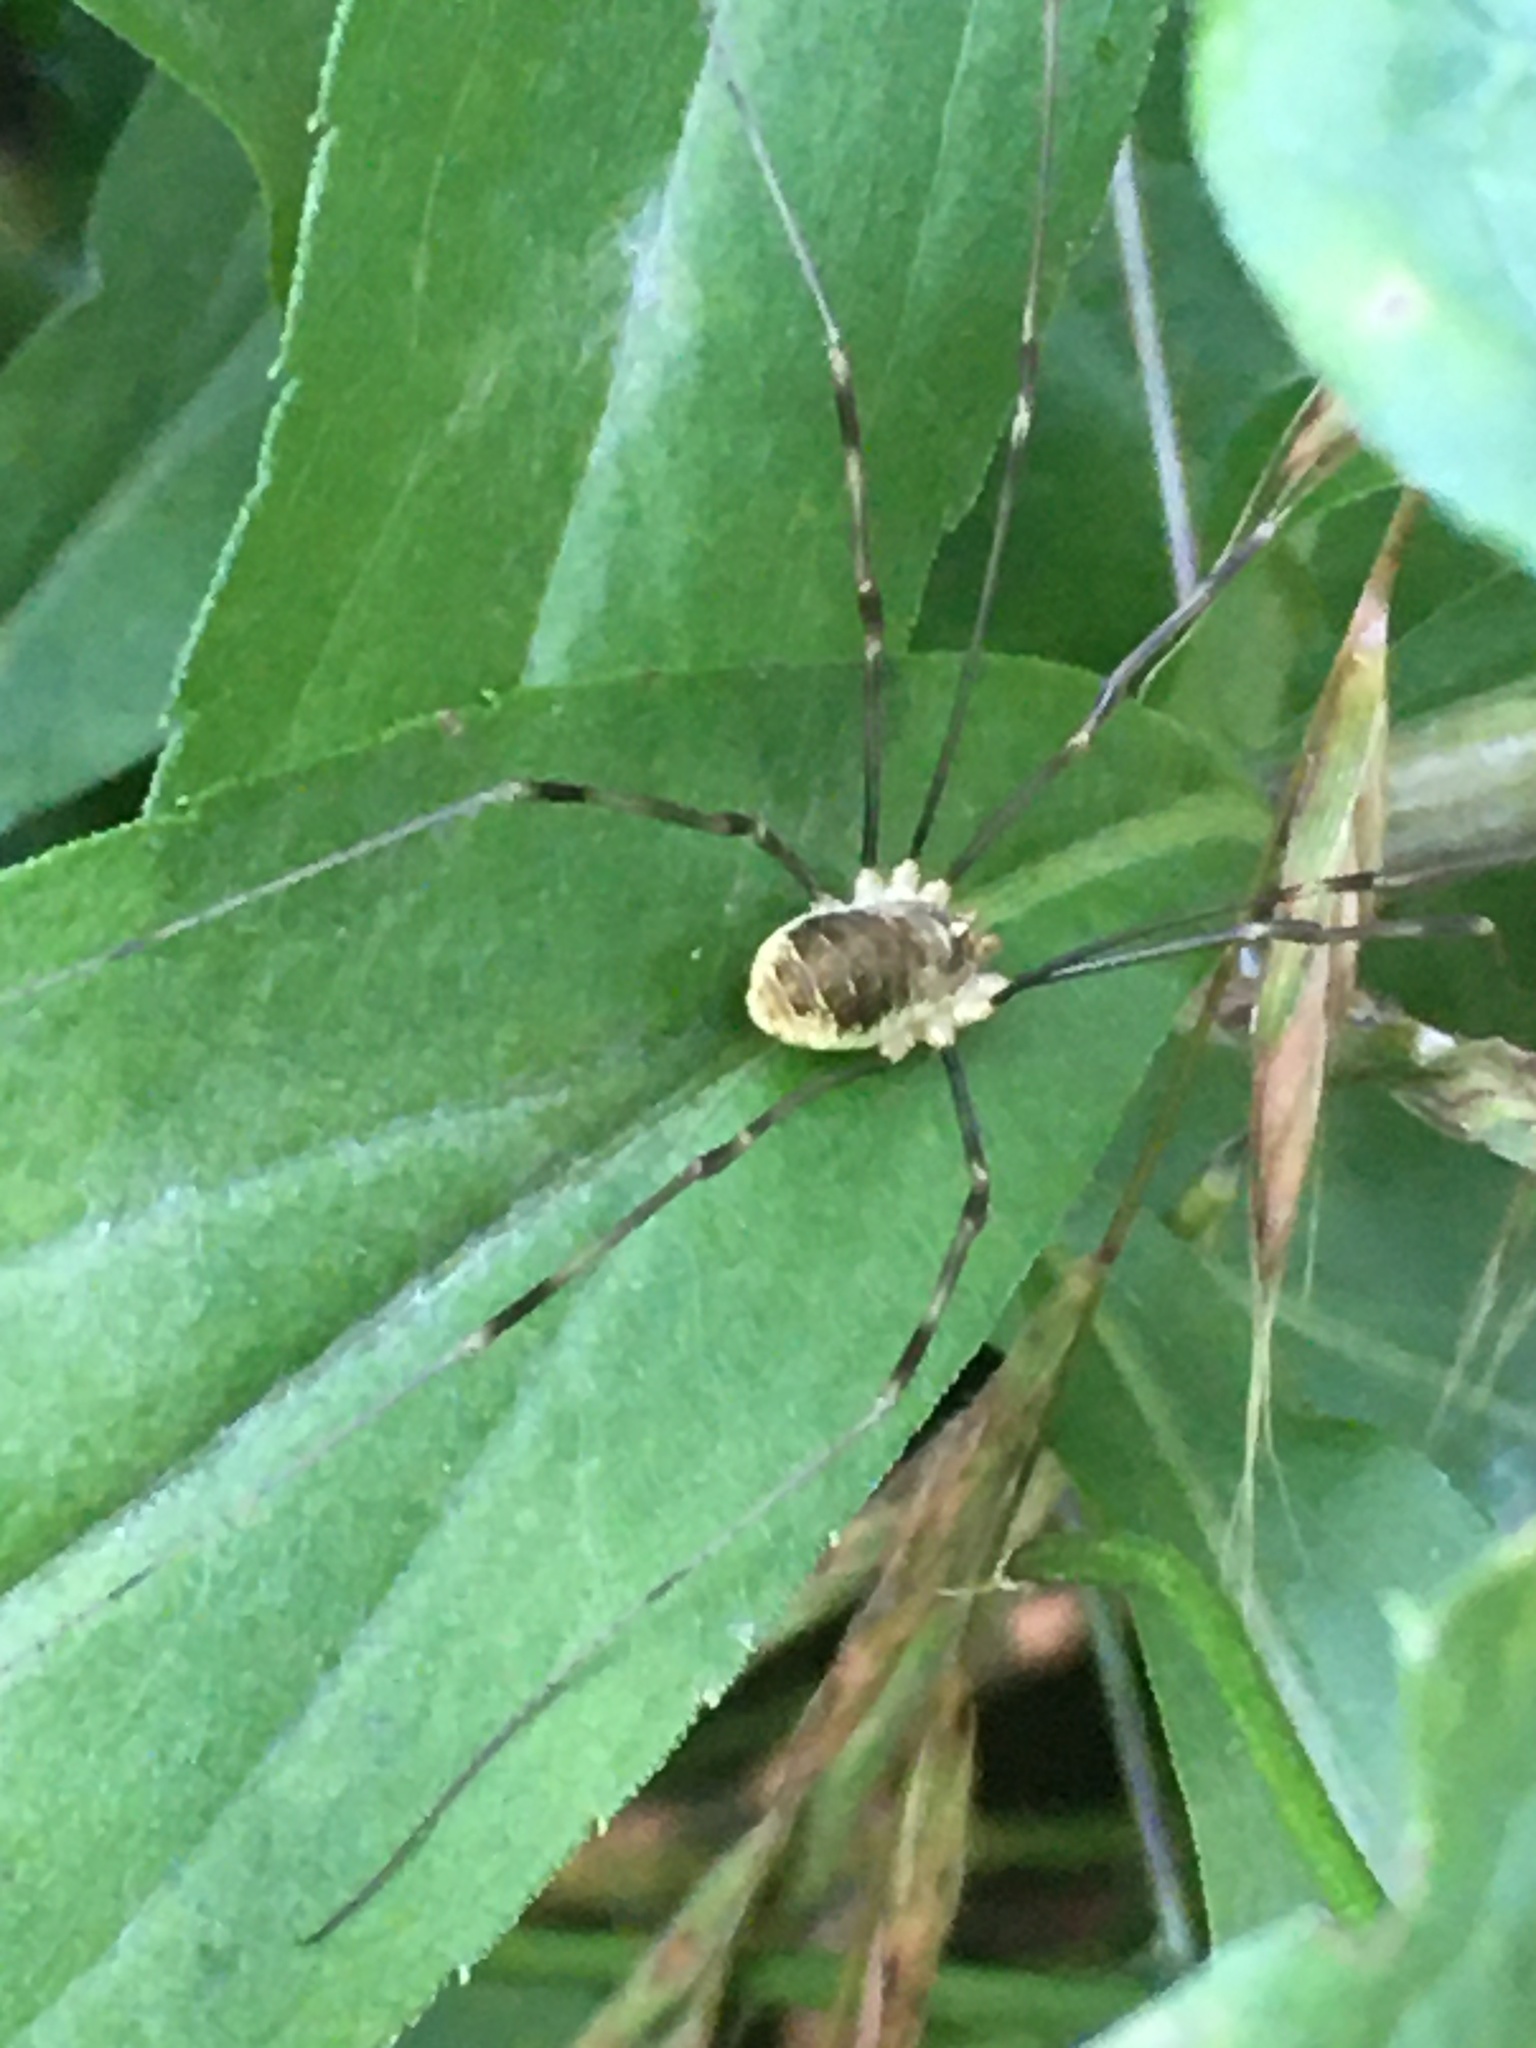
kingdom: Animalia
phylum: Arthropoda
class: Arachnida
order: Opiliones
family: Phalangiidae
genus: Opilio
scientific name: Opilio canestrinii
